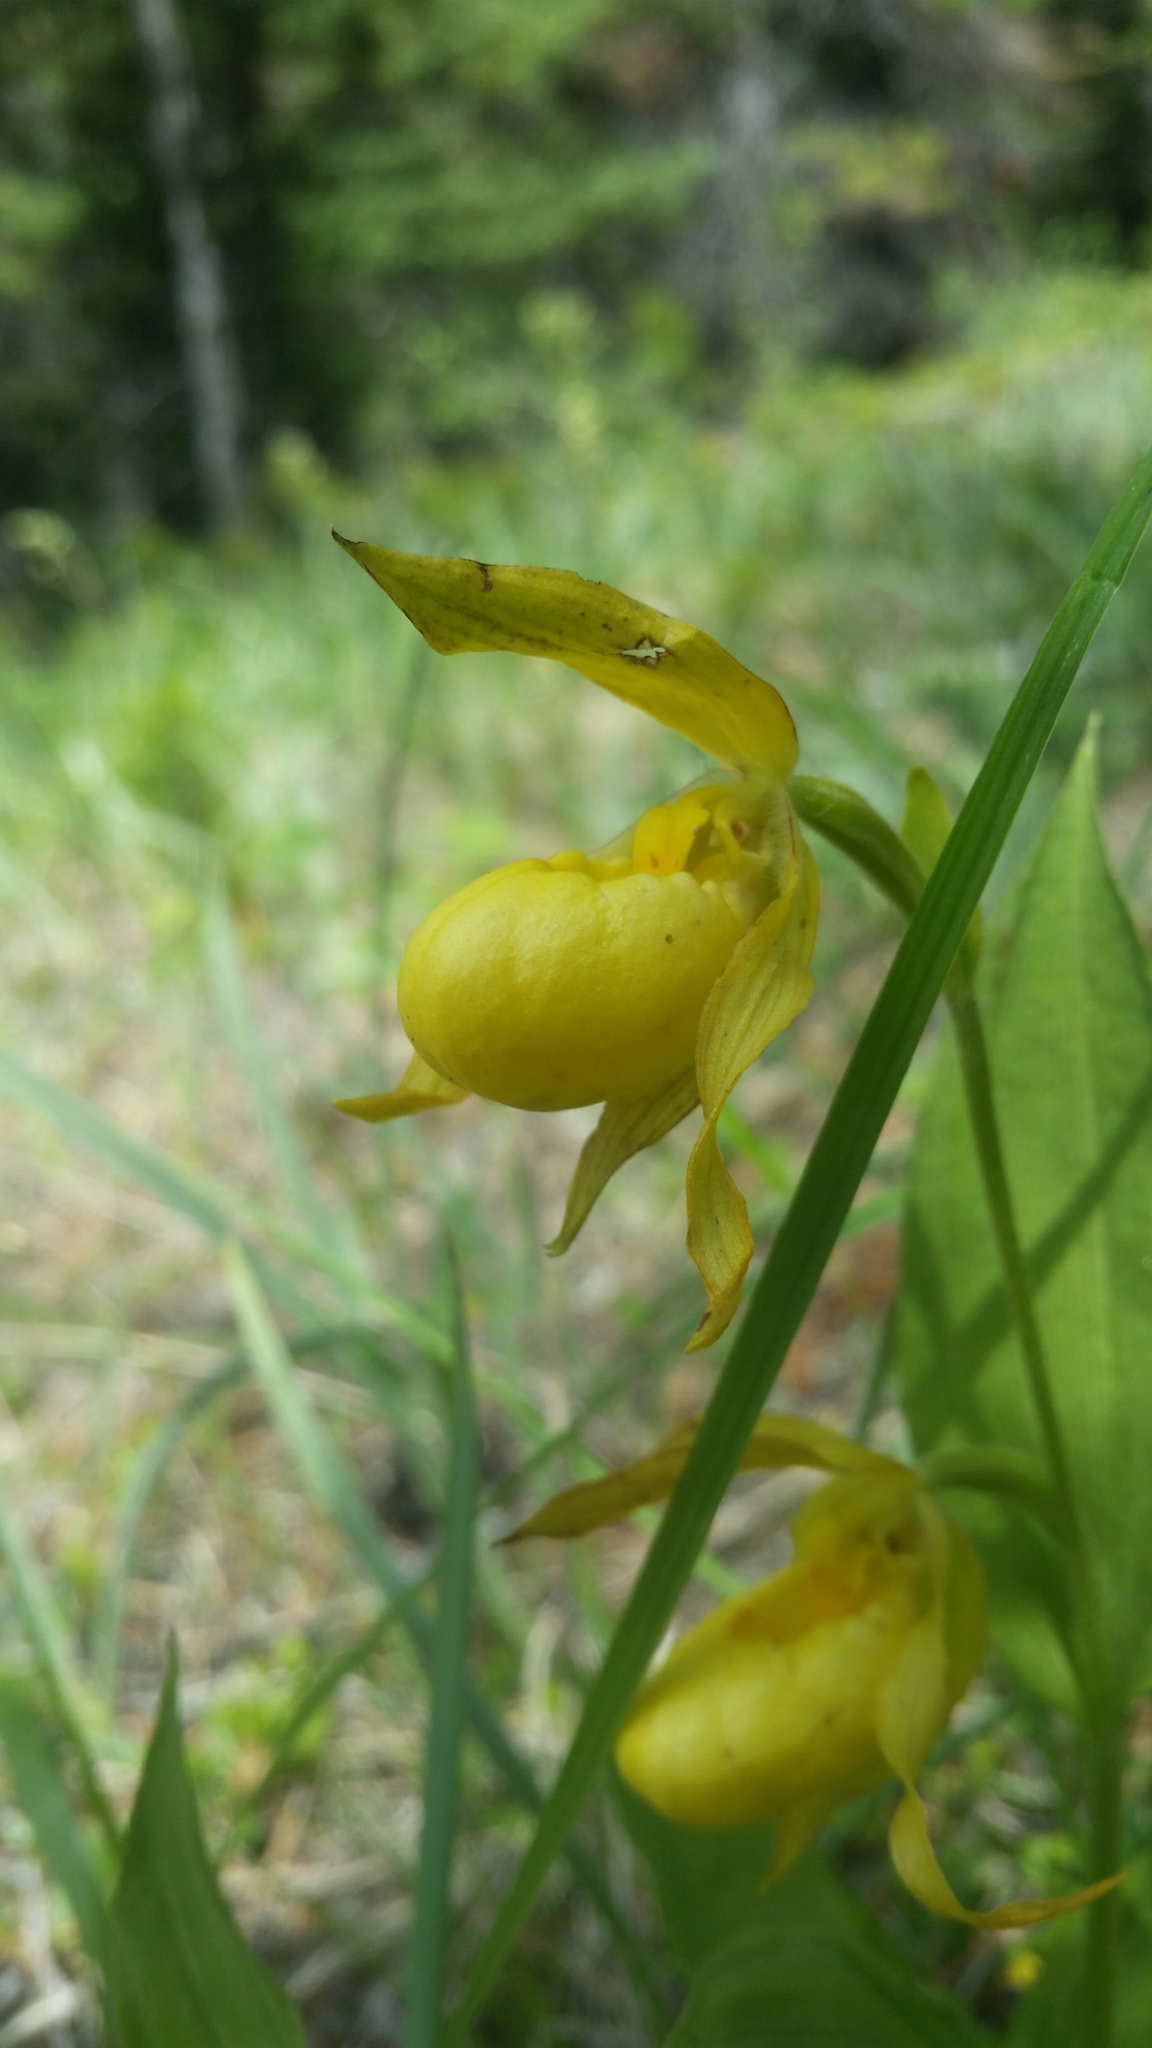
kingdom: Plantae
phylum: Tracheophyta
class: Liliopsida
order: Asparagales
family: Orchidaceae
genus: Cypripedium
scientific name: Cypripedium parviflorum
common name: American yellow lady's-slipper
